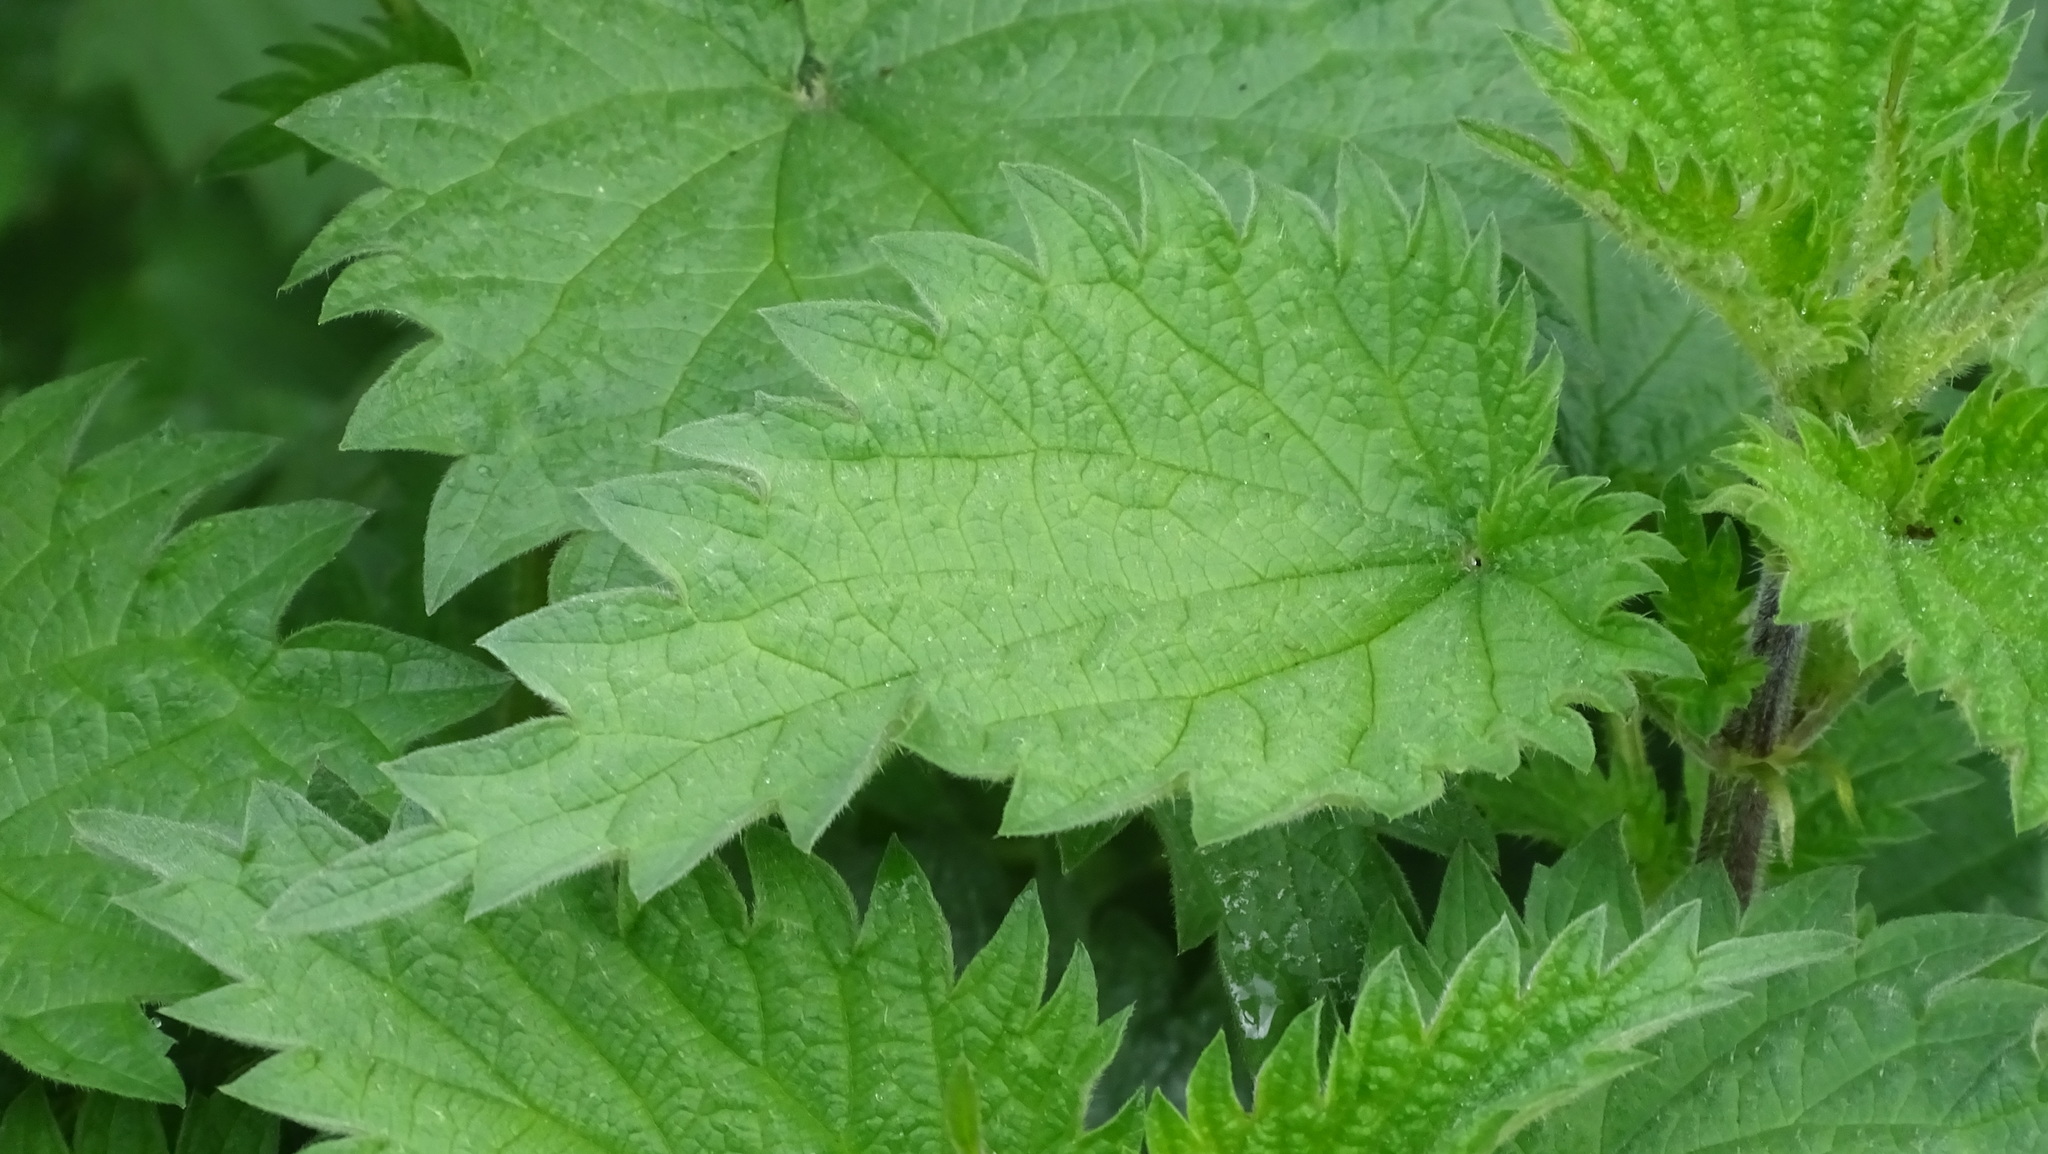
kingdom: Plantae
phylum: Tracheophyta
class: Magnoliopsida
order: Rosales
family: Urticaceae
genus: Urtica
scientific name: Urtica dioica
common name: Common nettle
